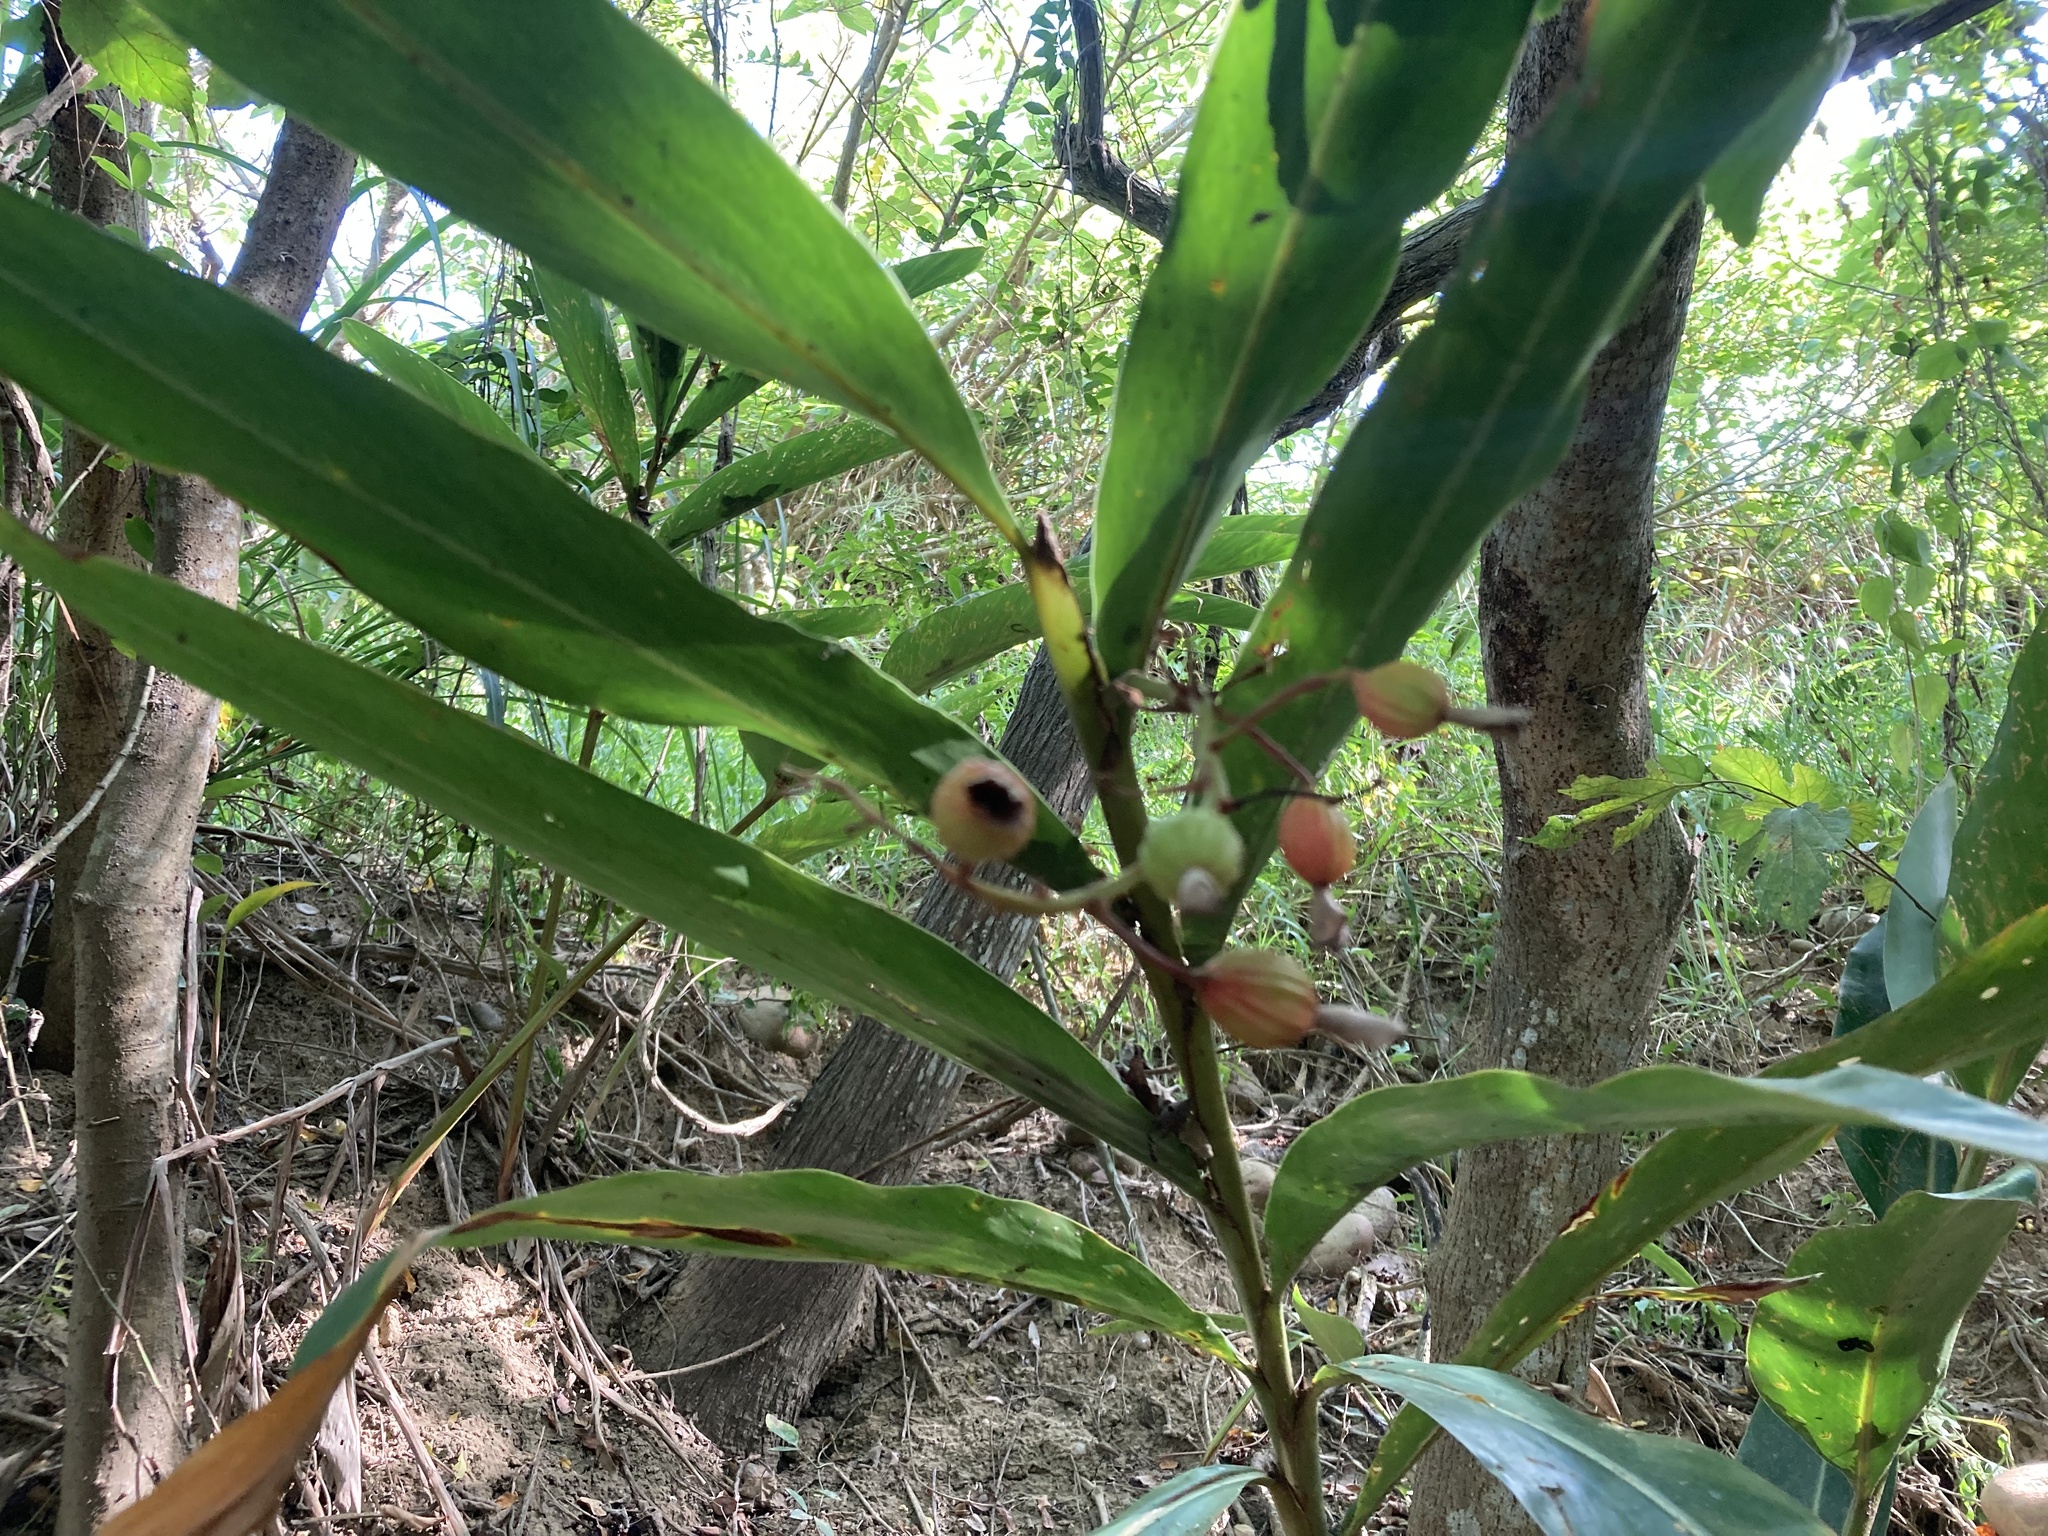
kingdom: Plantae
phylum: Tracheophyta
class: Liliopsida
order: Zingiberales
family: Zingiberaceae
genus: Alpinia
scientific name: Alpinia zerumbet
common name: Shellplant
